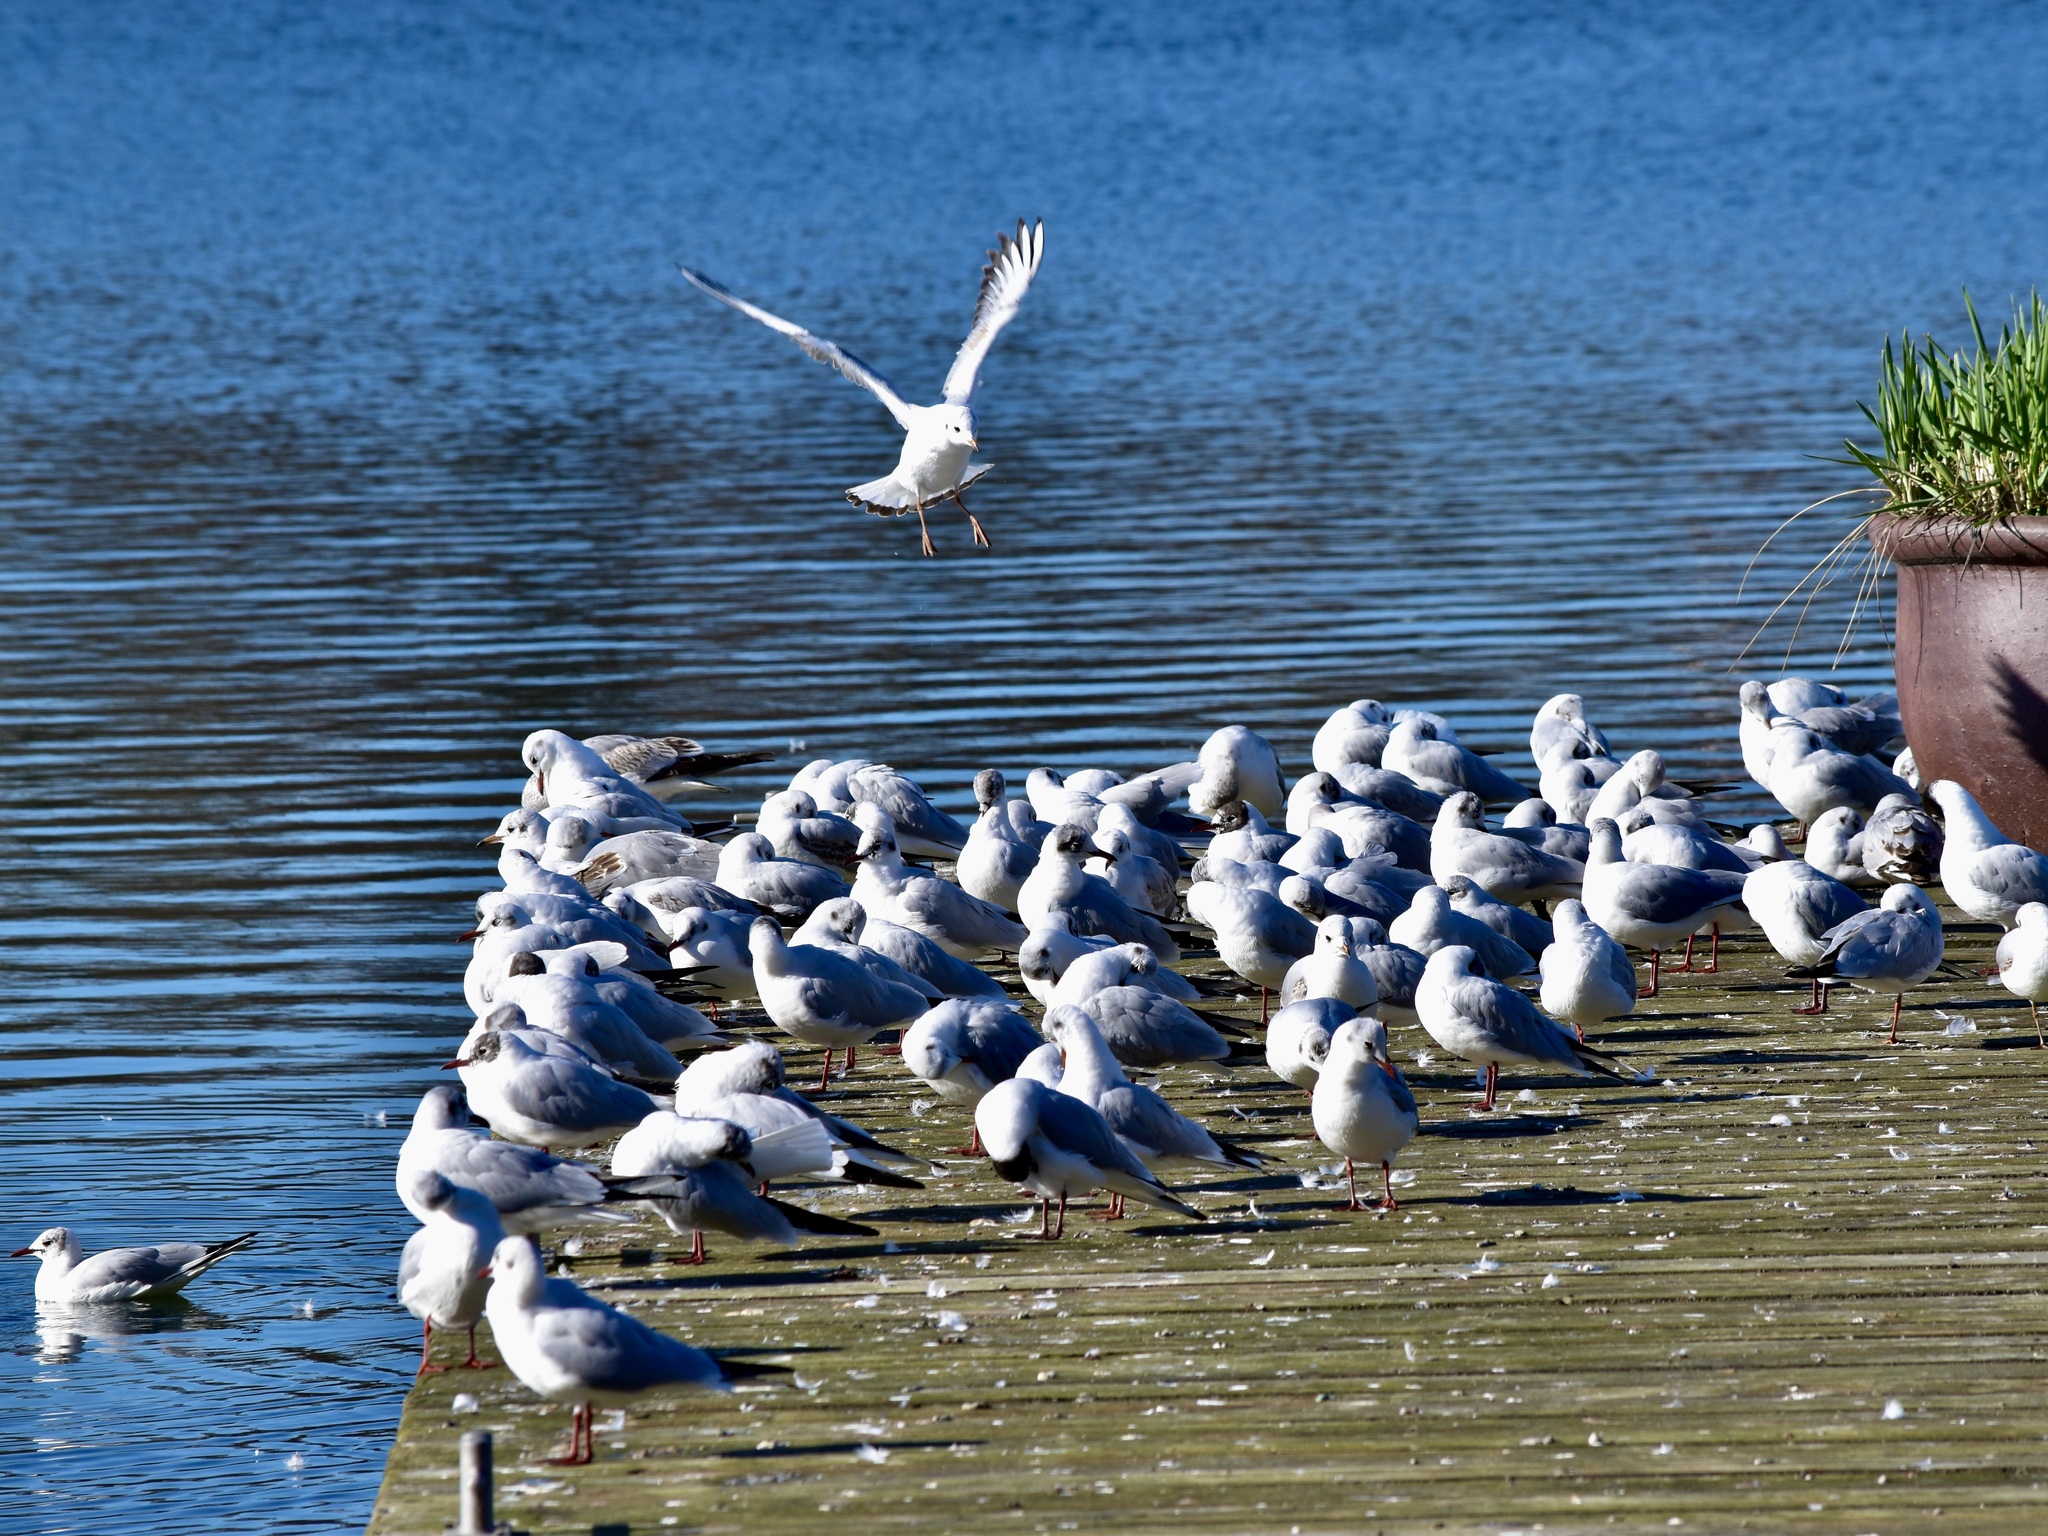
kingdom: Animalia
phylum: Chordata
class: Aves
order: Charadriiformes
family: Laridae
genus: Chroicocephalus
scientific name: Chroicocephalus ridibundus
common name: Black-headed gull
